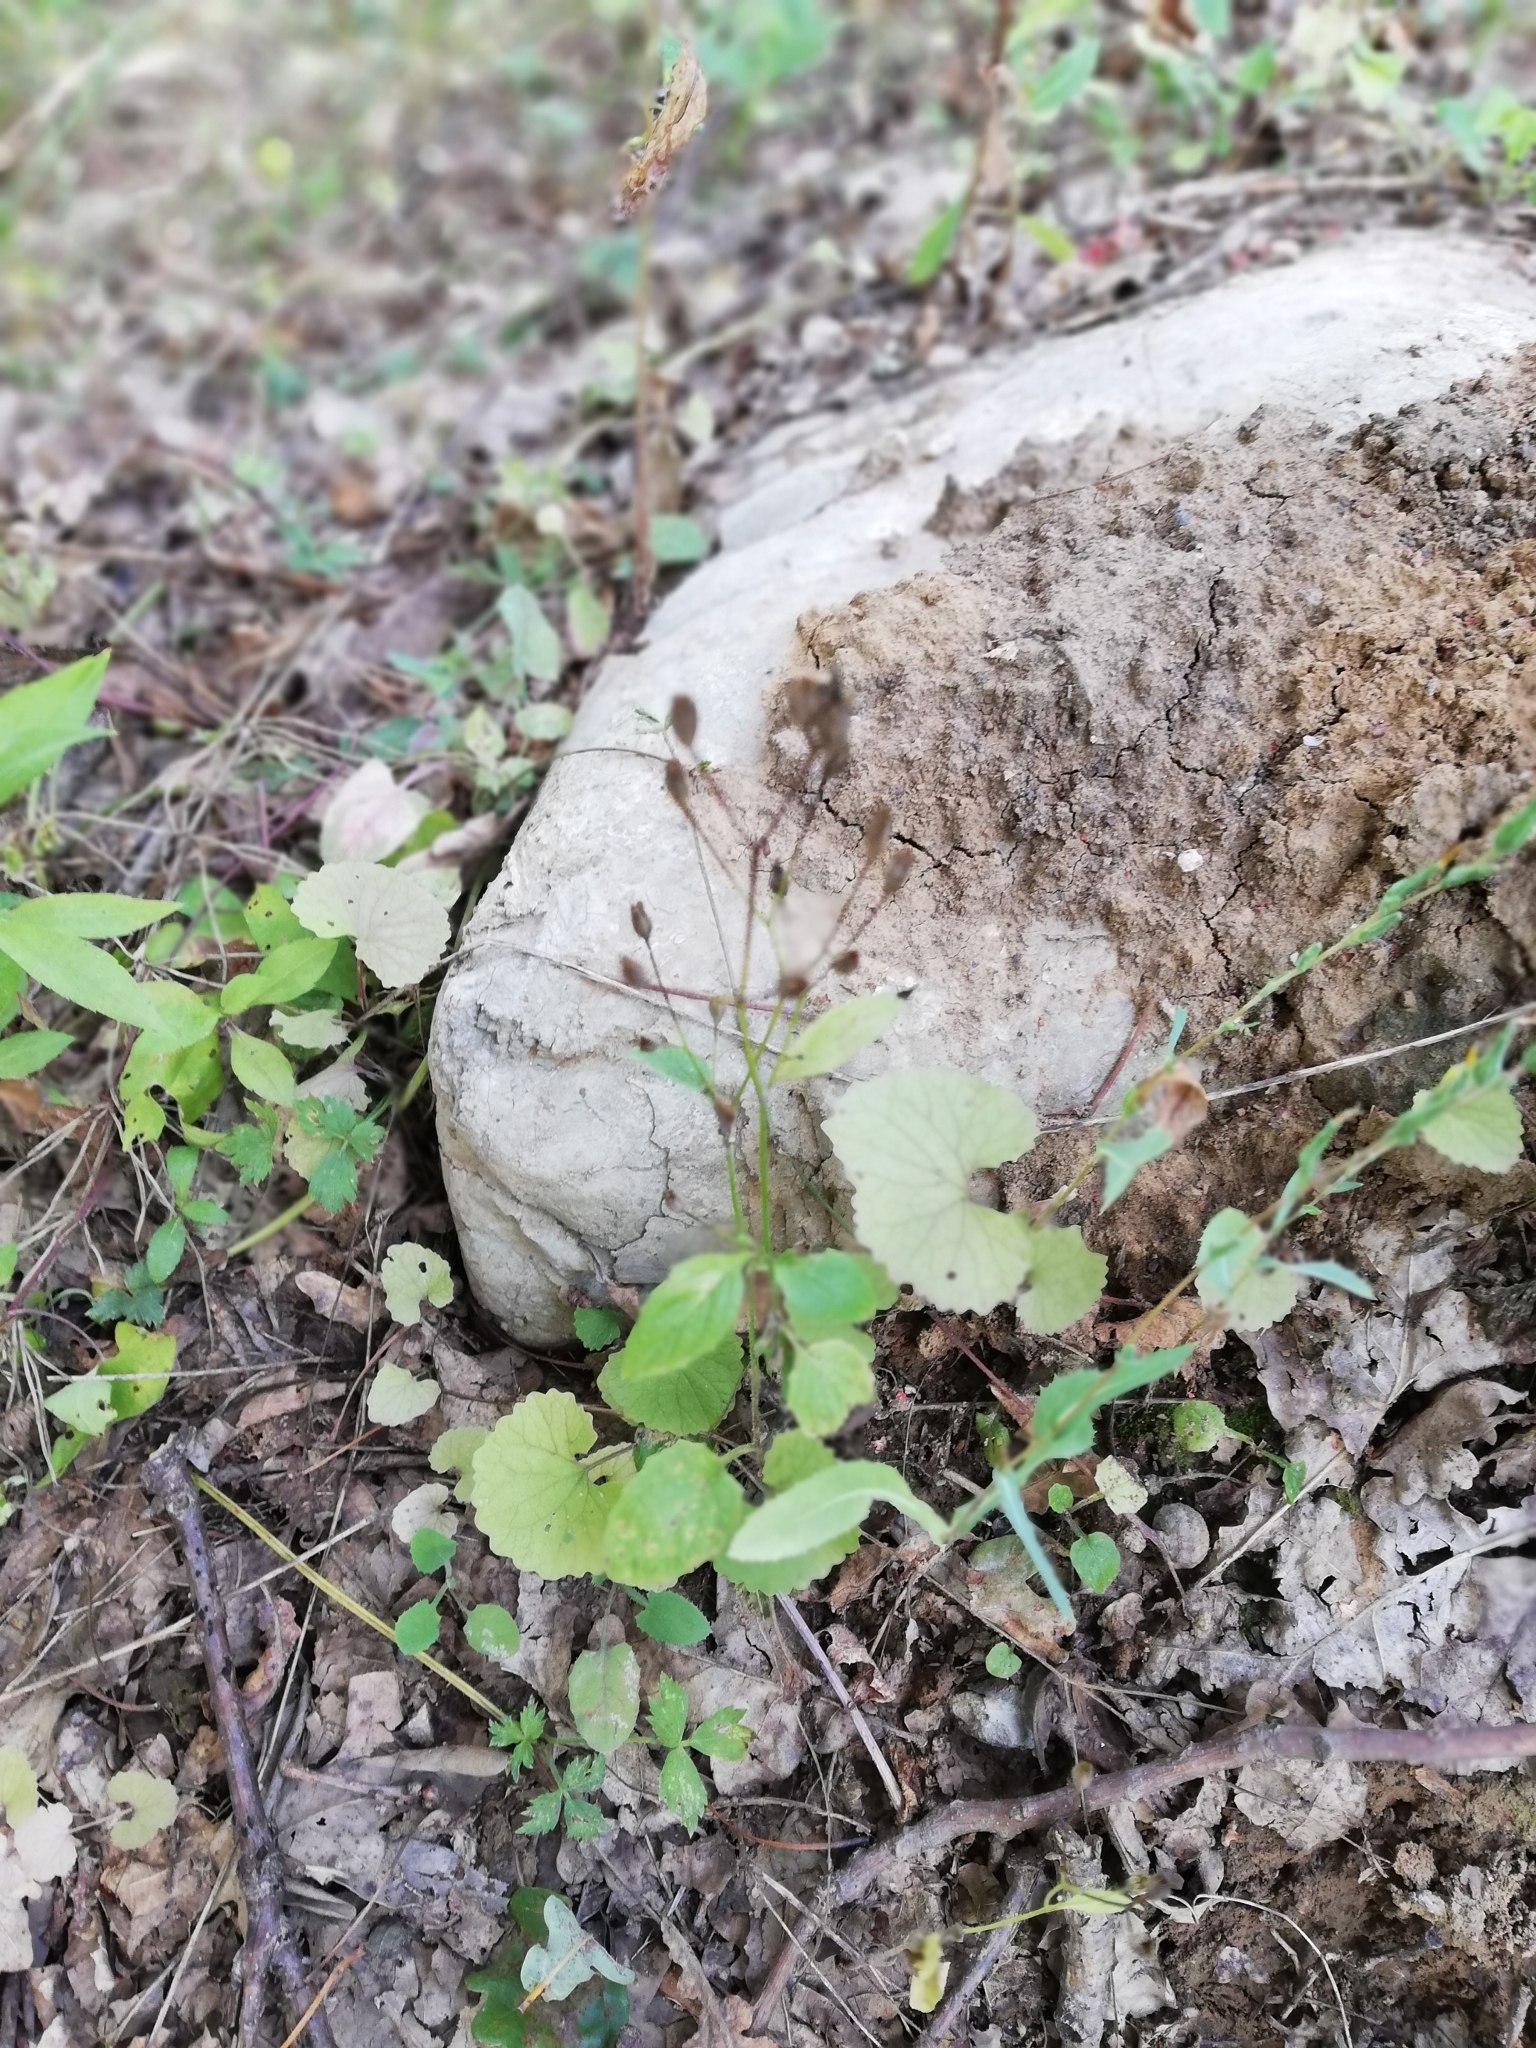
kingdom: Plantae
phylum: Tracheophyta
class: Magnoliopsida
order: Asterales
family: Asteraceae
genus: Lapsana
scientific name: Lapsana communis
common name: Nipplewort
